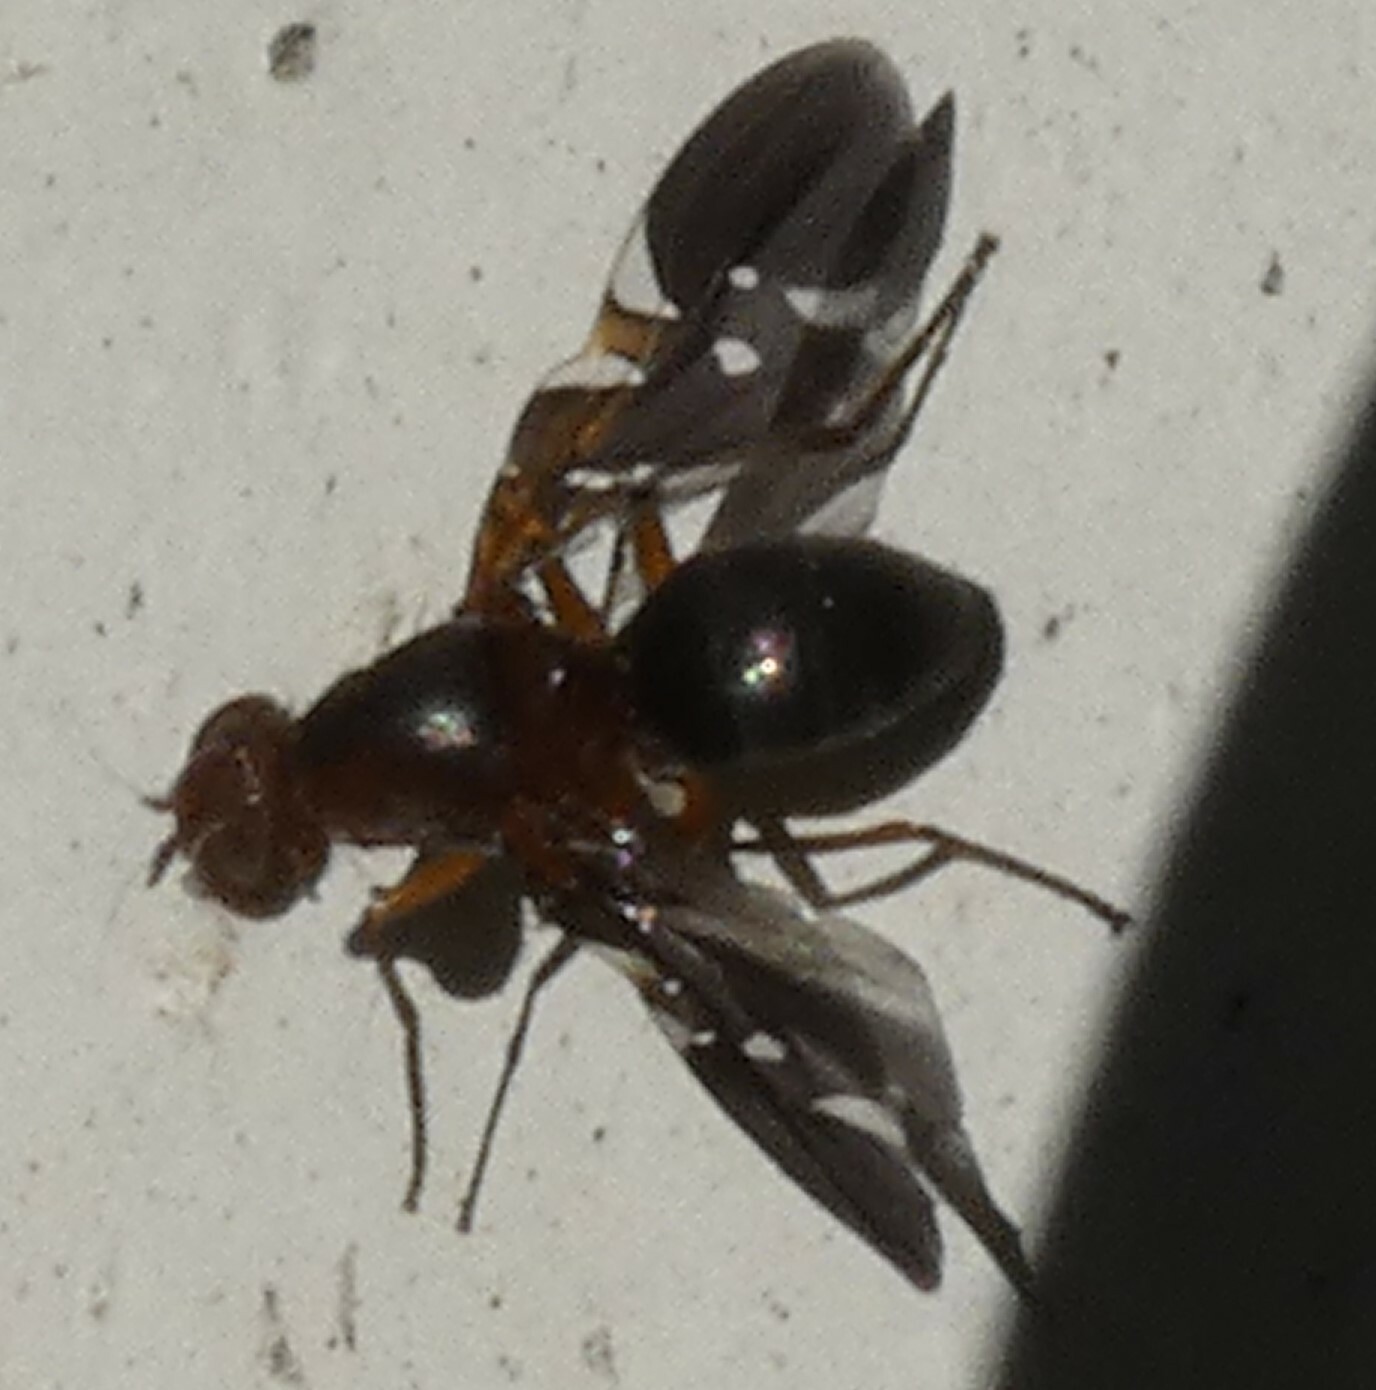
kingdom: Animalia
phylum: Arthropoda
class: Insecta
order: Diptera
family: Ulidiidae
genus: Delphinia
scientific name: Delphinia picta
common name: Common picture-winged fly
